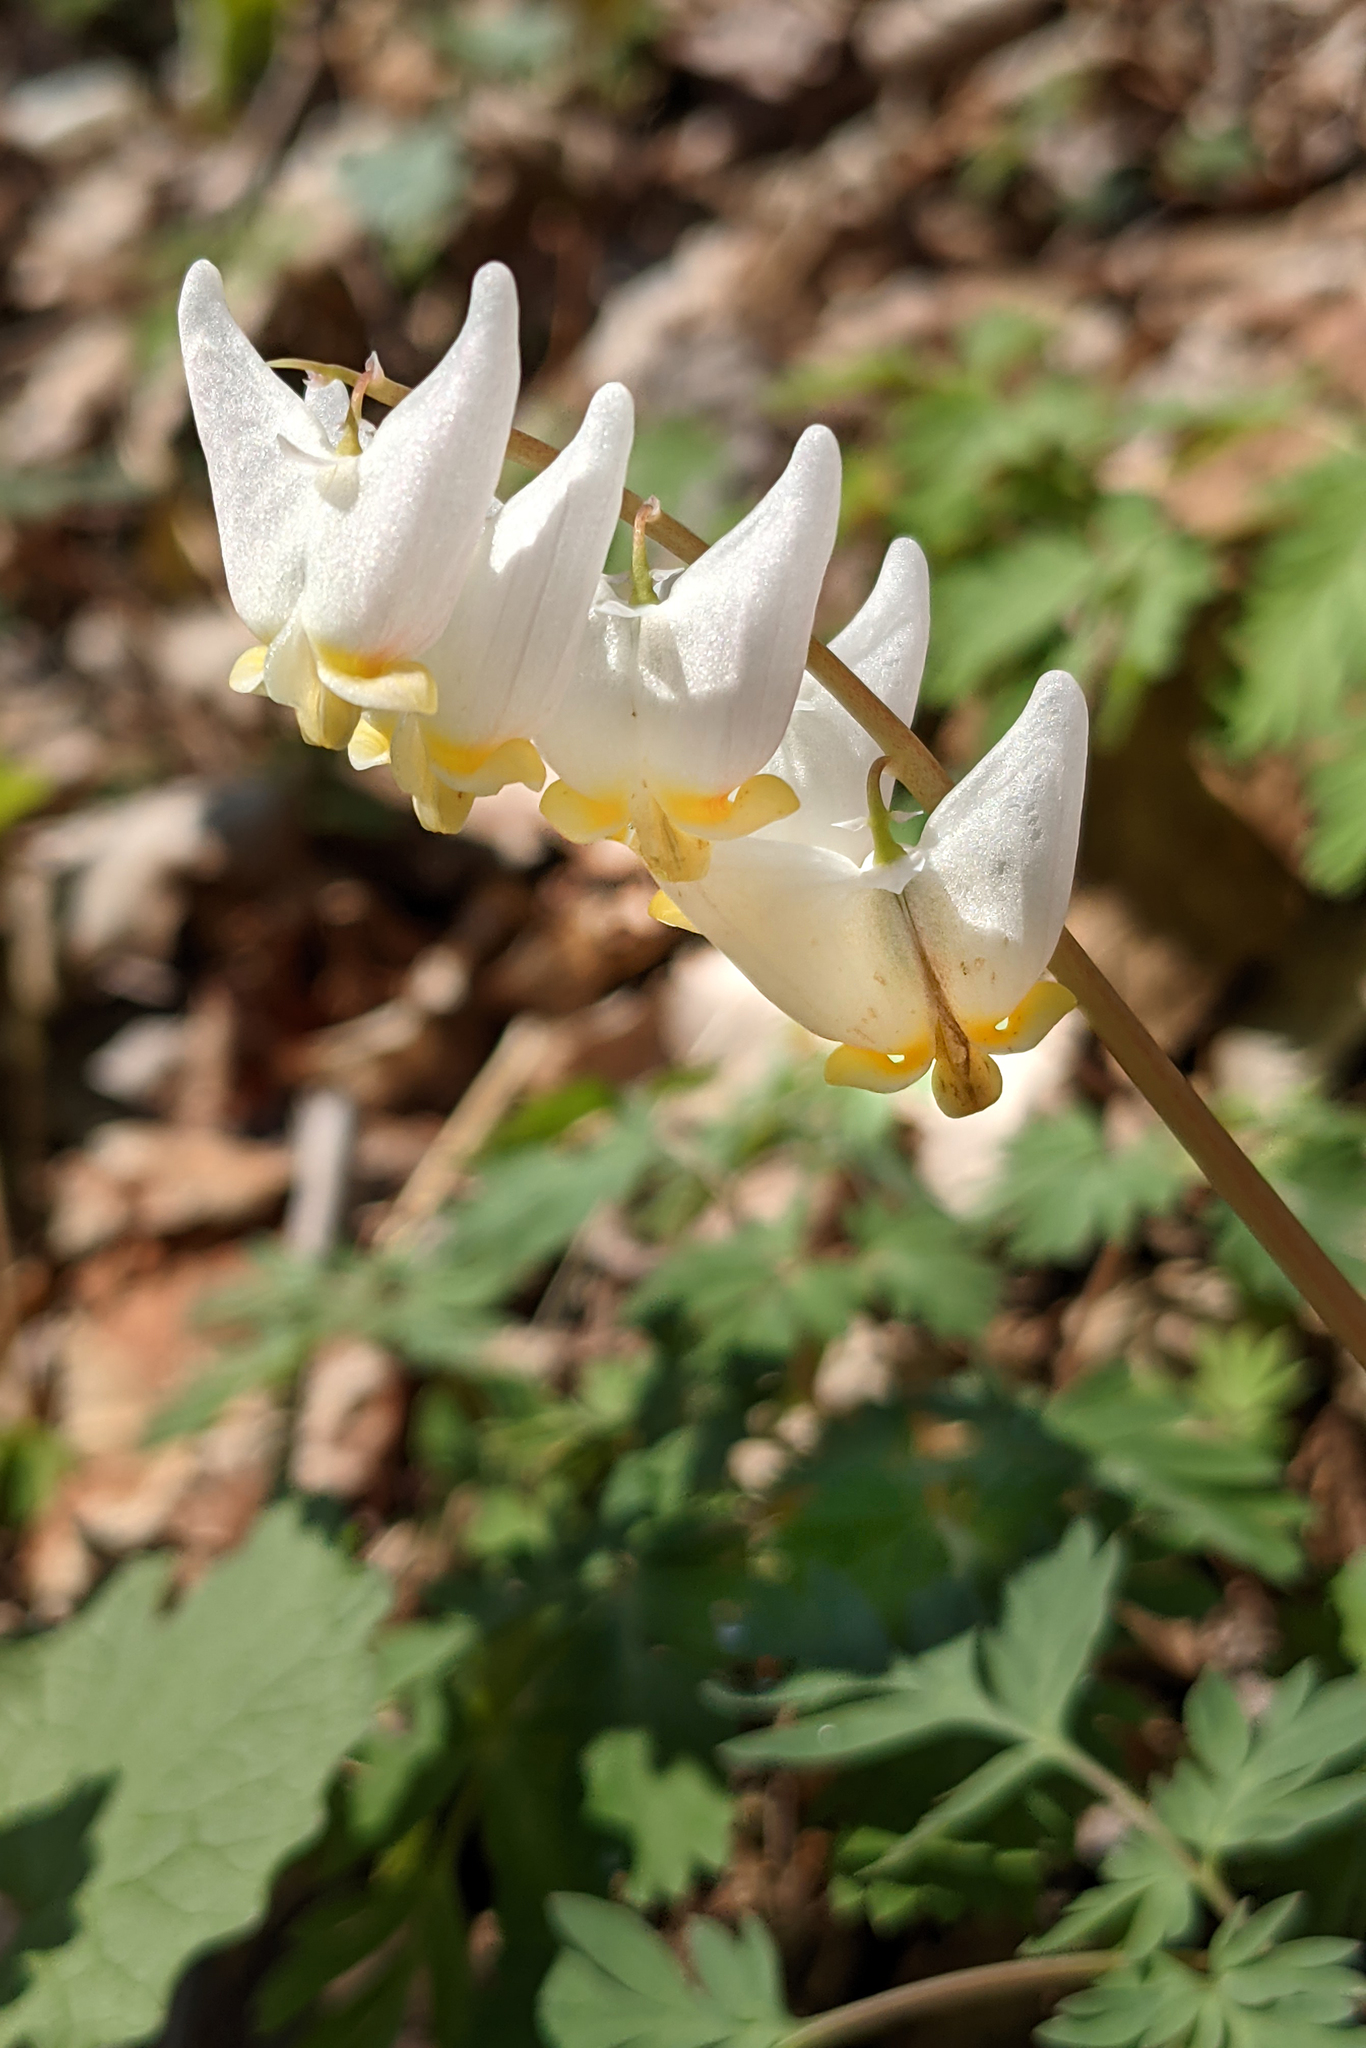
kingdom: Plantae
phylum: Tracheophyta
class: Magnoliopsida
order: Ranunculales
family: Papaveraceae
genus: Dicentra
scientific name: Dicentra cucullaria
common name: Dutchman's breeches
